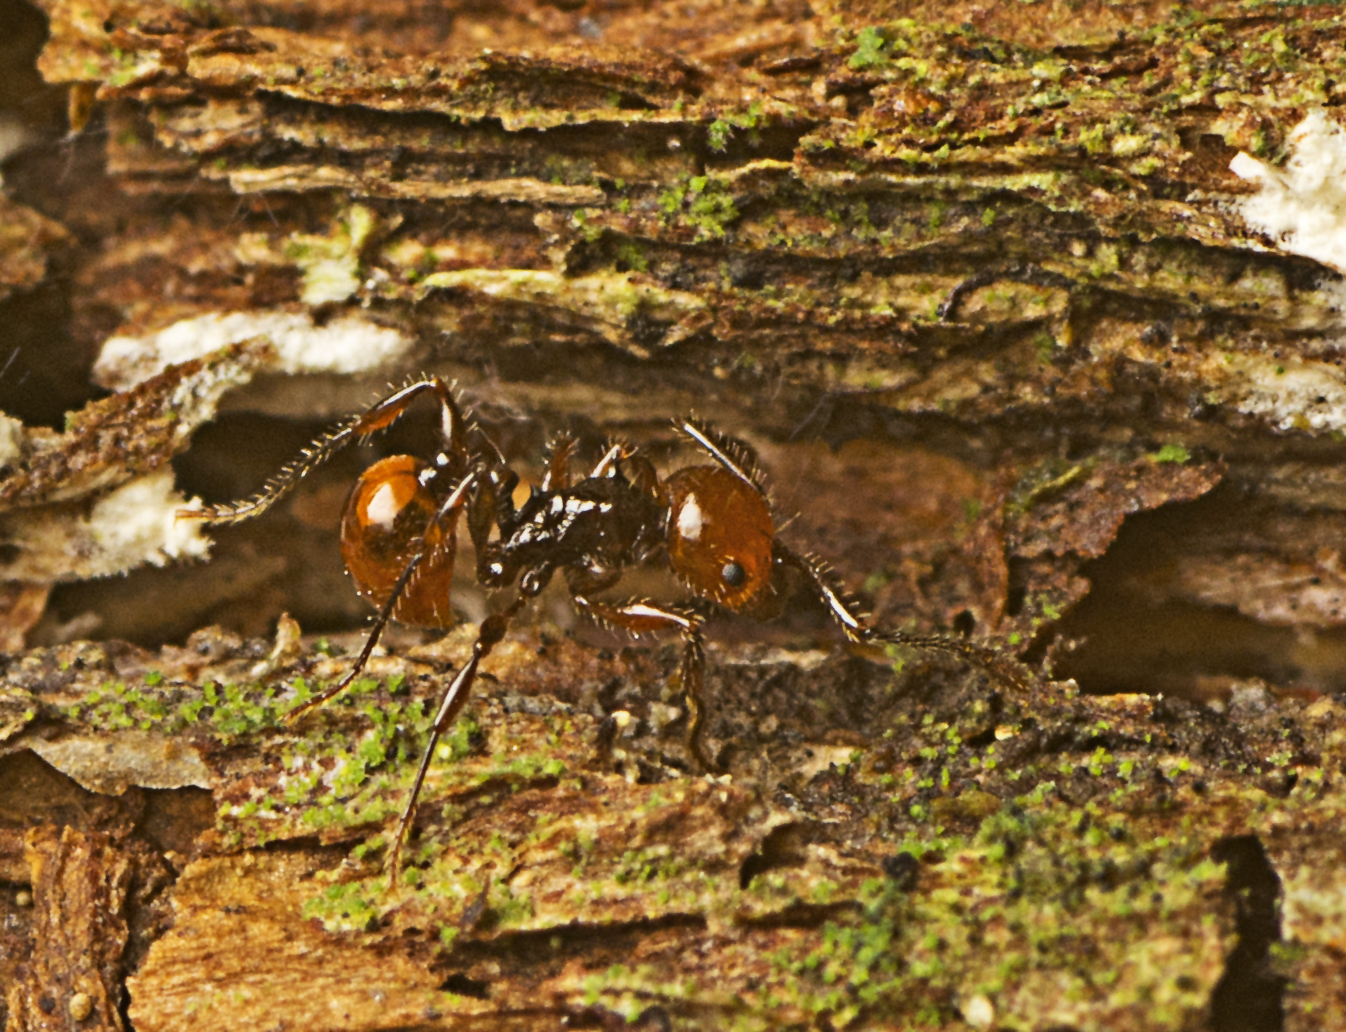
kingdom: Animalia
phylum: Arthropoda
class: Insecta
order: Hymenoptera
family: Formicidae
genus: Pristomyrmex
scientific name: Pristomyrmex quadridentatus
